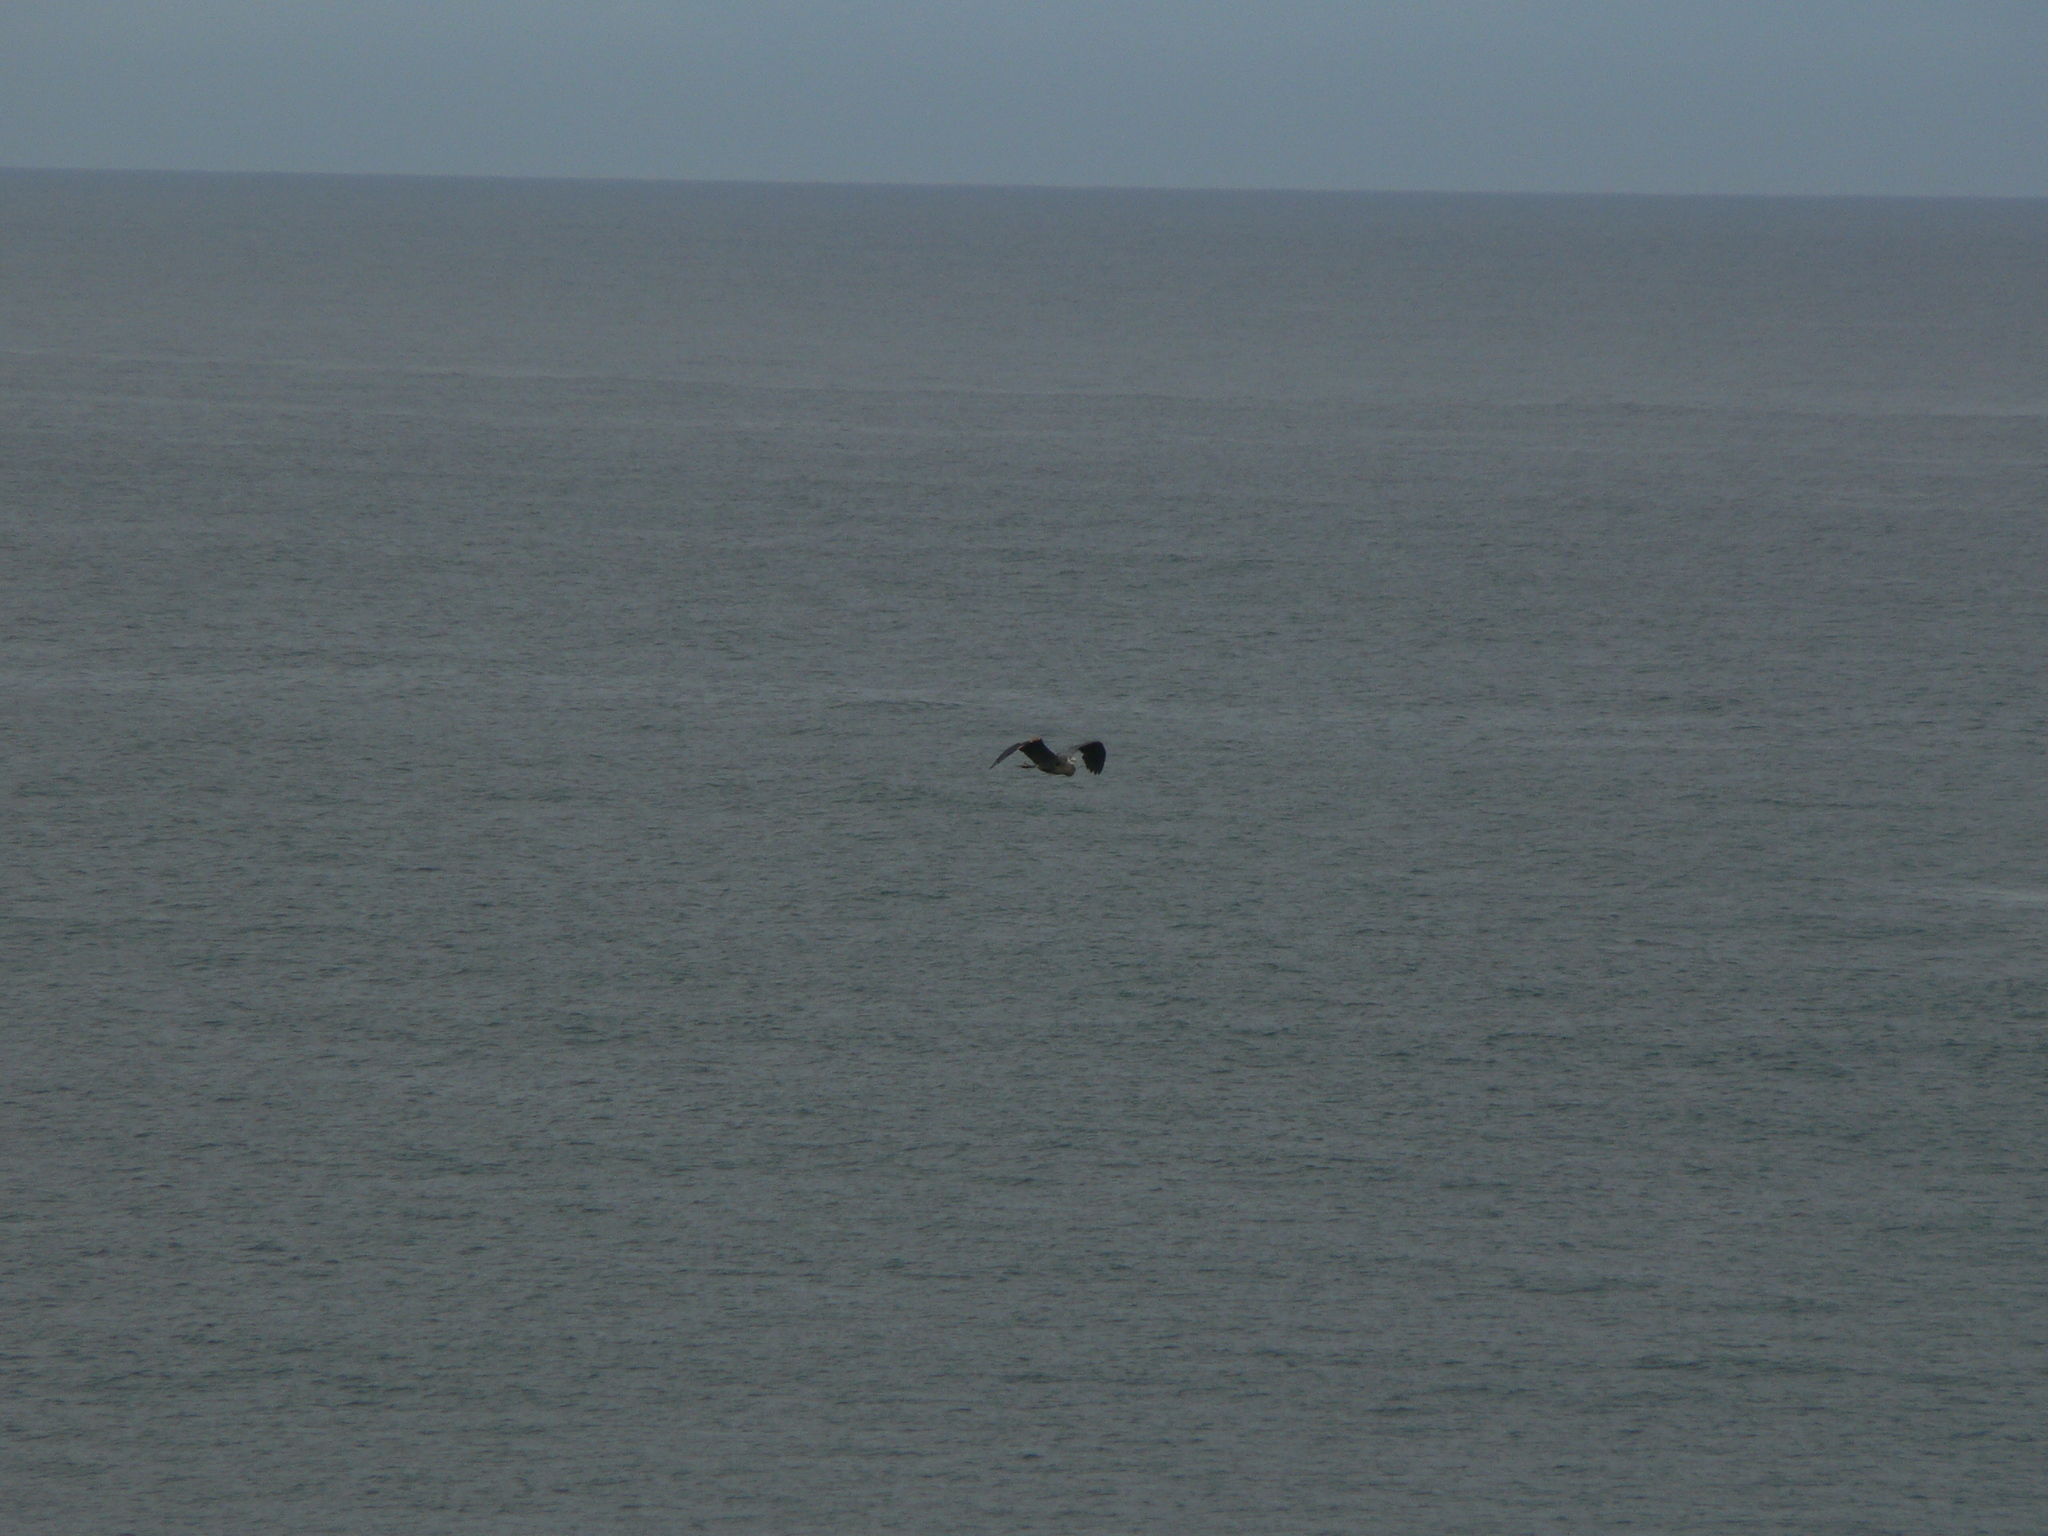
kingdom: Animalia
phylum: Chordata
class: Aves
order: Pelecaniformes
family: Ardeidae
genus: Ardea
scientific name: Ardea herodias
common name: Great blue heron
